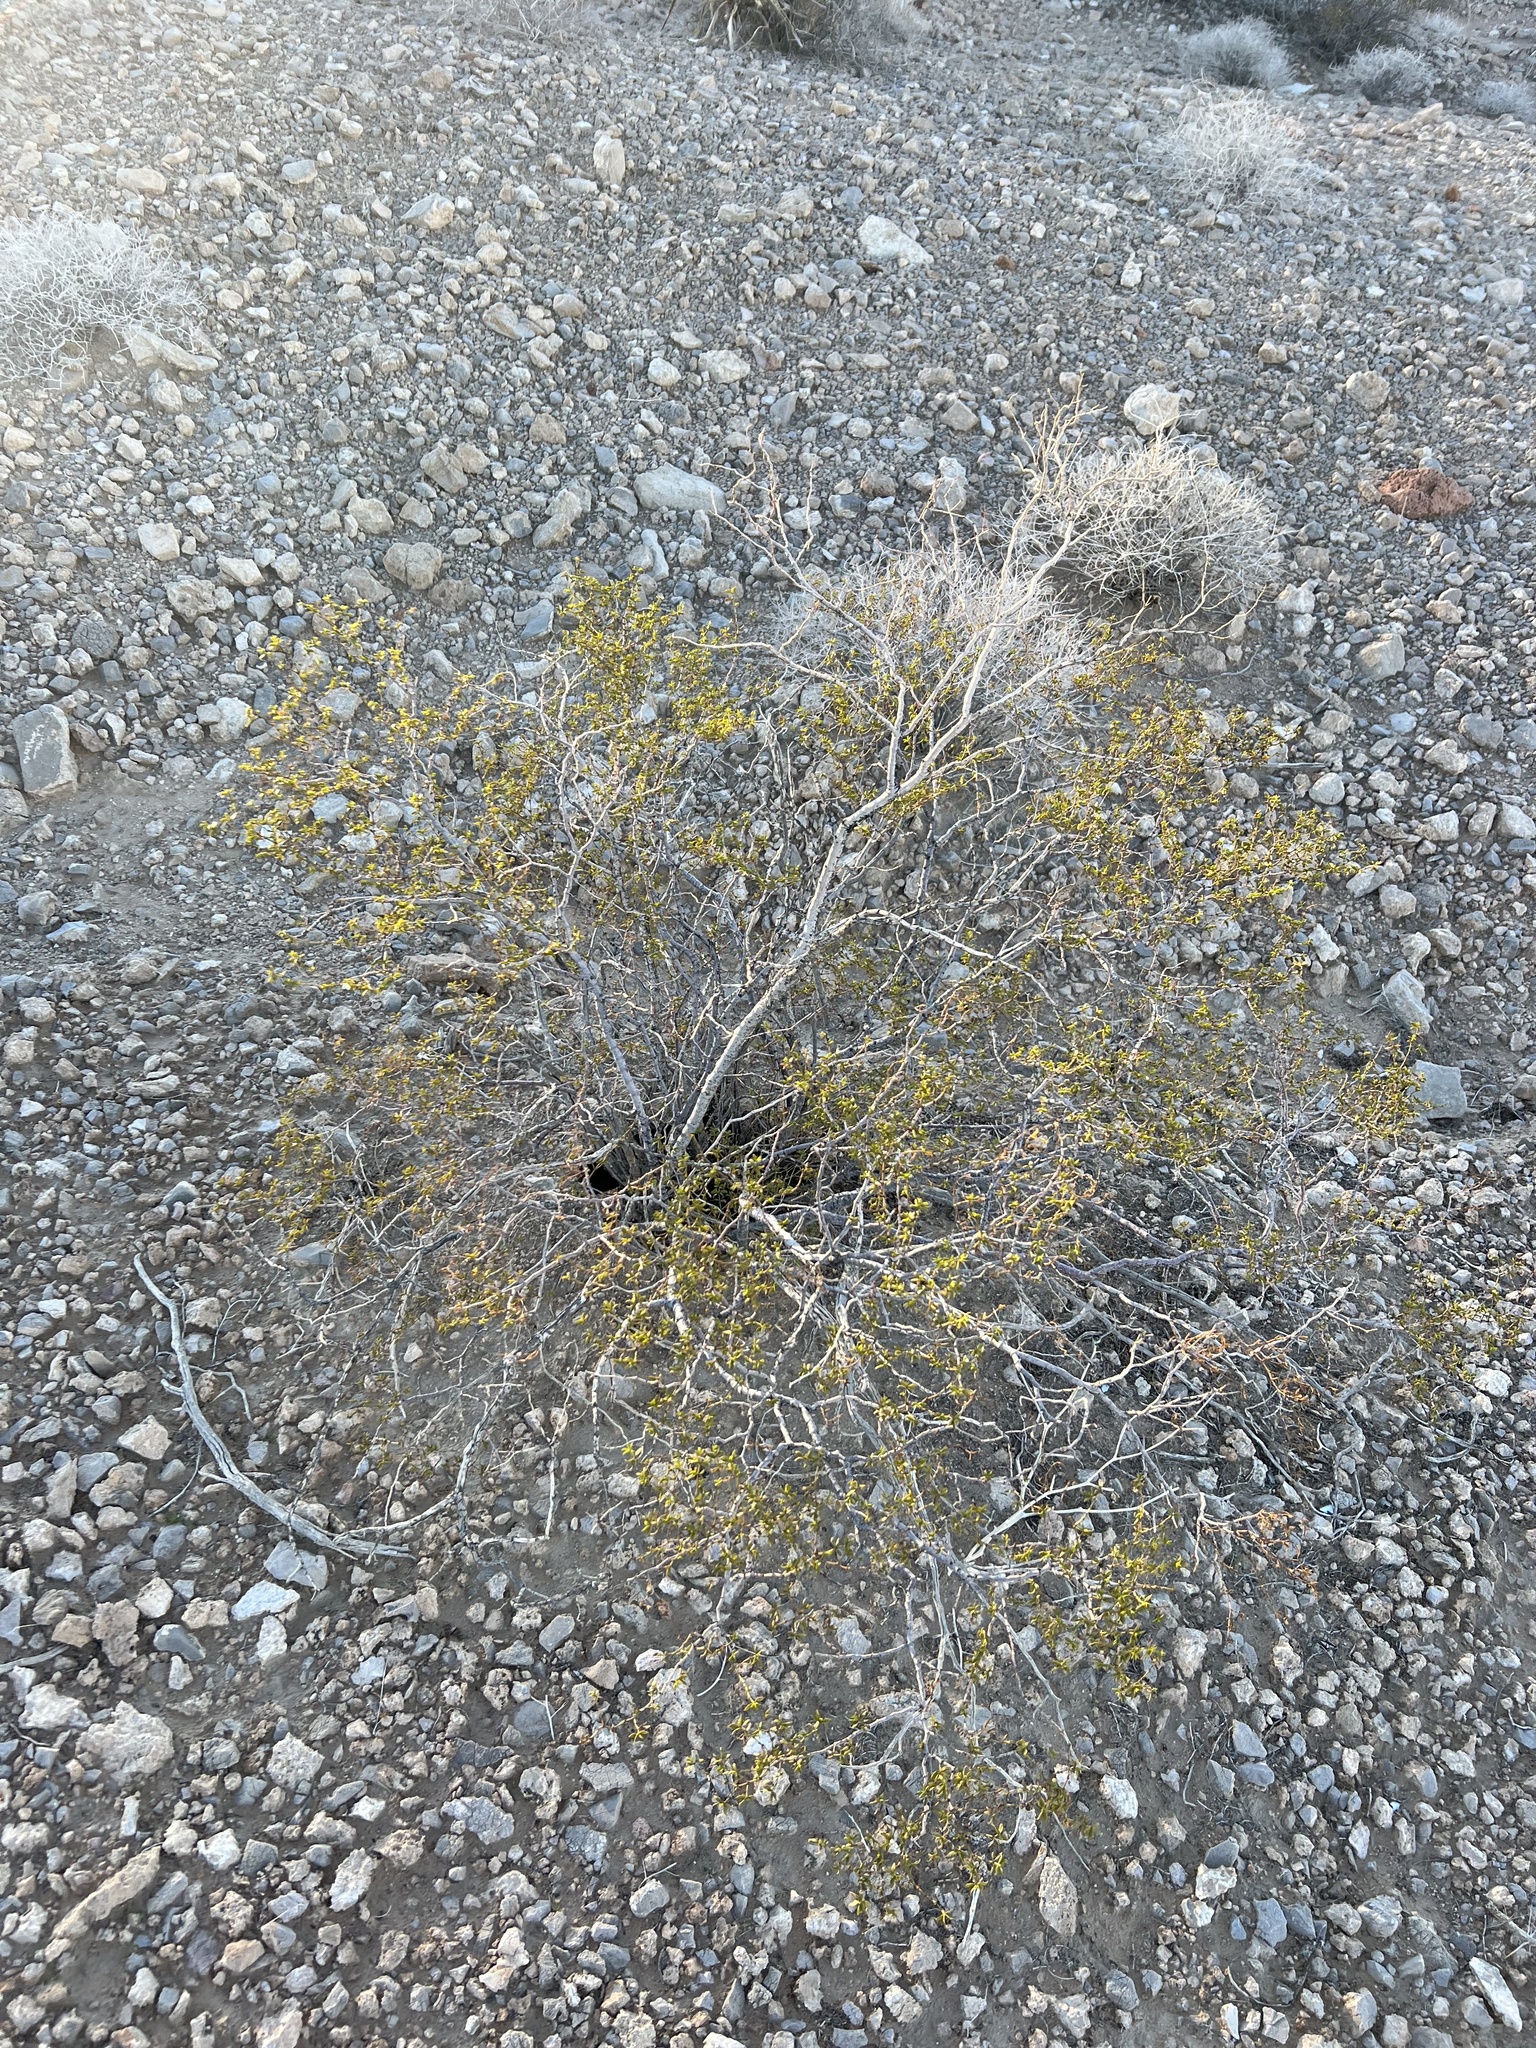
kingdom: Plantae
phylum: Tracheophyta
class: Magnoliopsida
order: Zygophyllales
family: Zygophyllaceae
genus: Larrea
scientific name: Larrea tridentata
